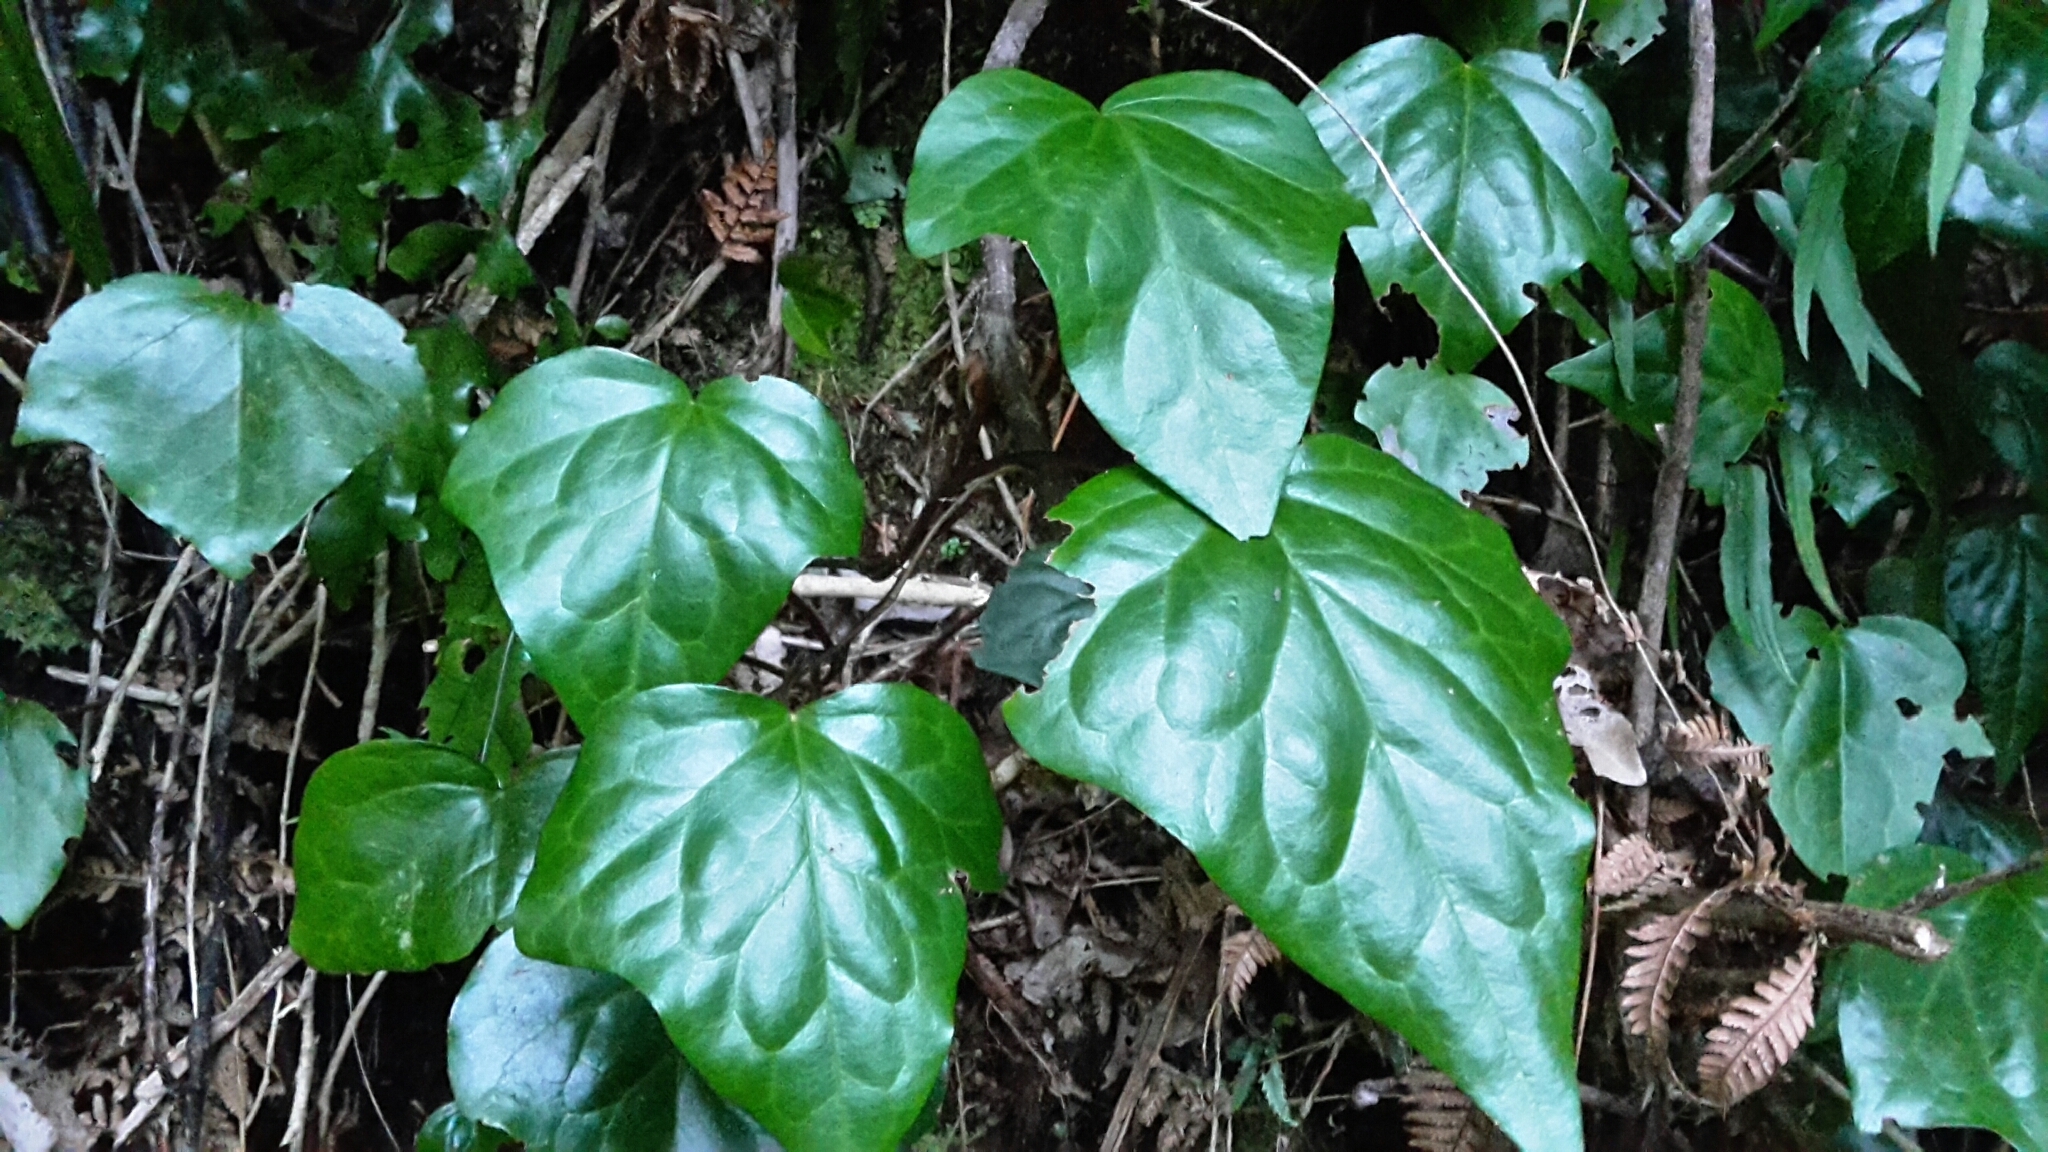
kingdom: Plantae
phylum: Tracheophyta
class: Magnoliopsida
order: Apiales
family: Araliaceae
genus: Hedera
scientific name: Hedera helix
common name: Ivy
